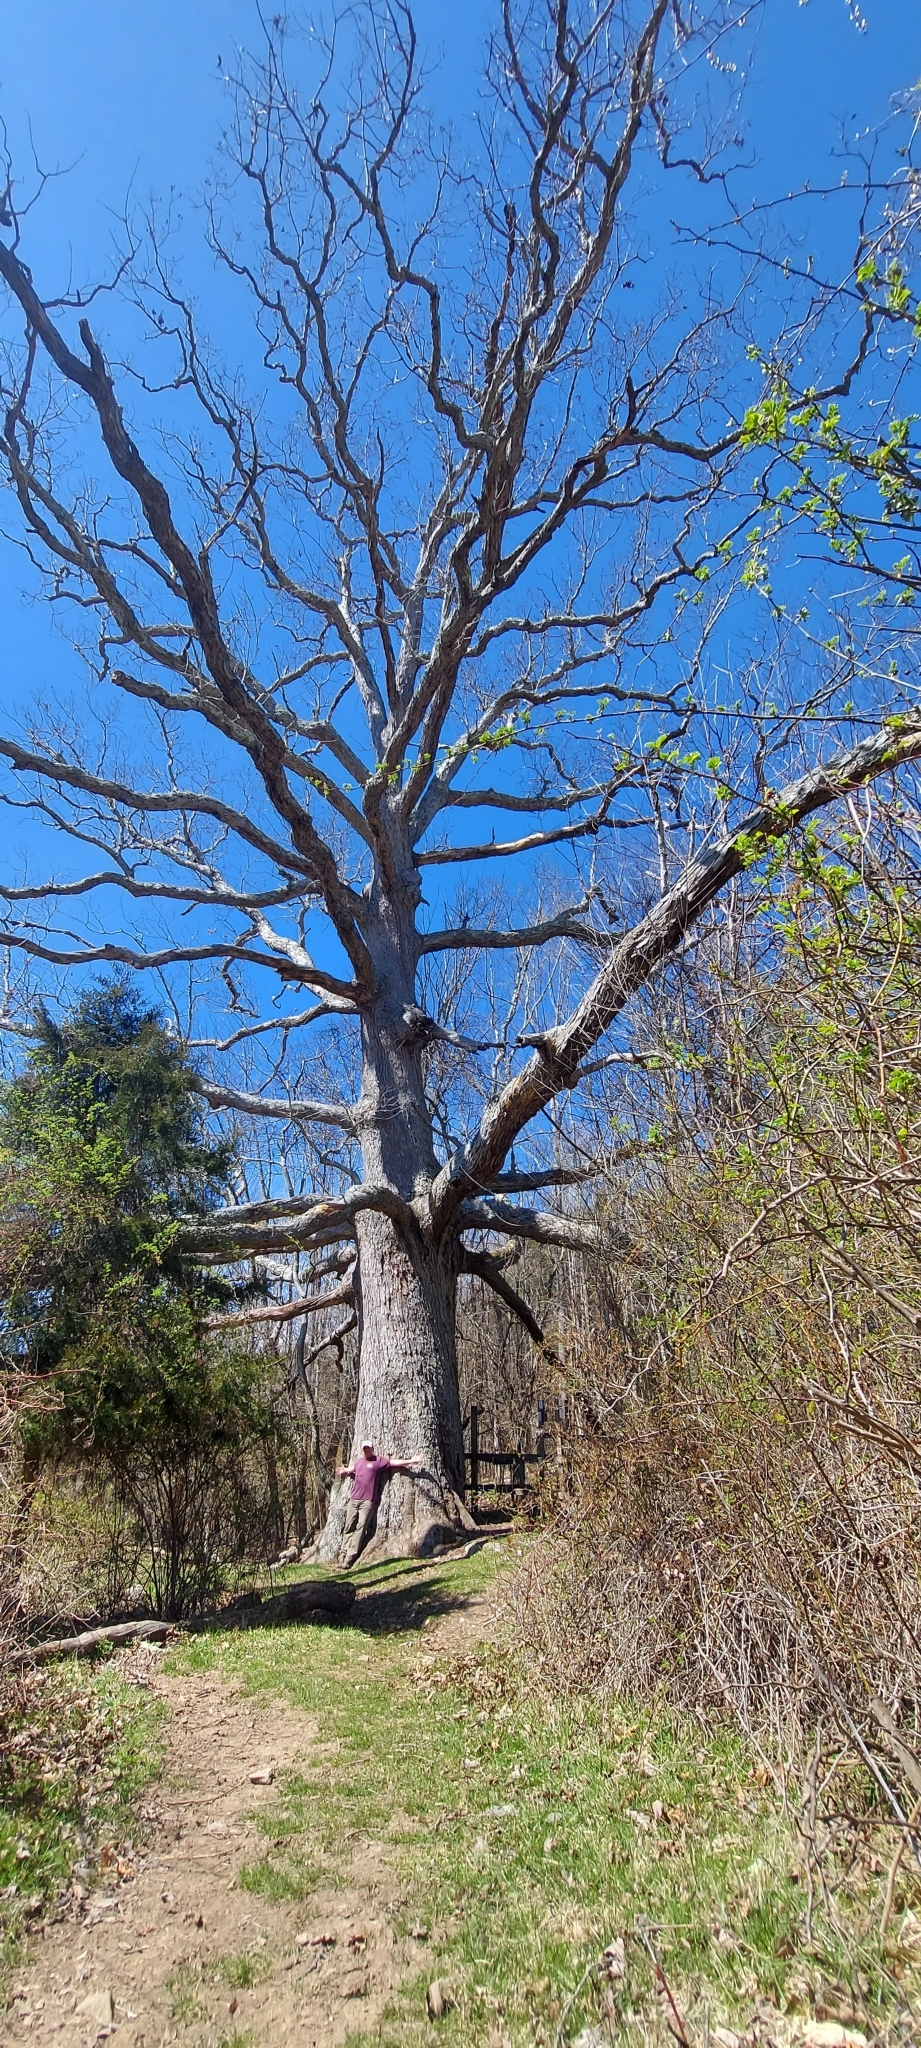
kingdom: Plantae
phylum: Tracheophyta
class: Magnoliopsida
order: Fagales
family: Fagaceae
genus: Quercus
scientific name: Quercus alba
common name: White oak
